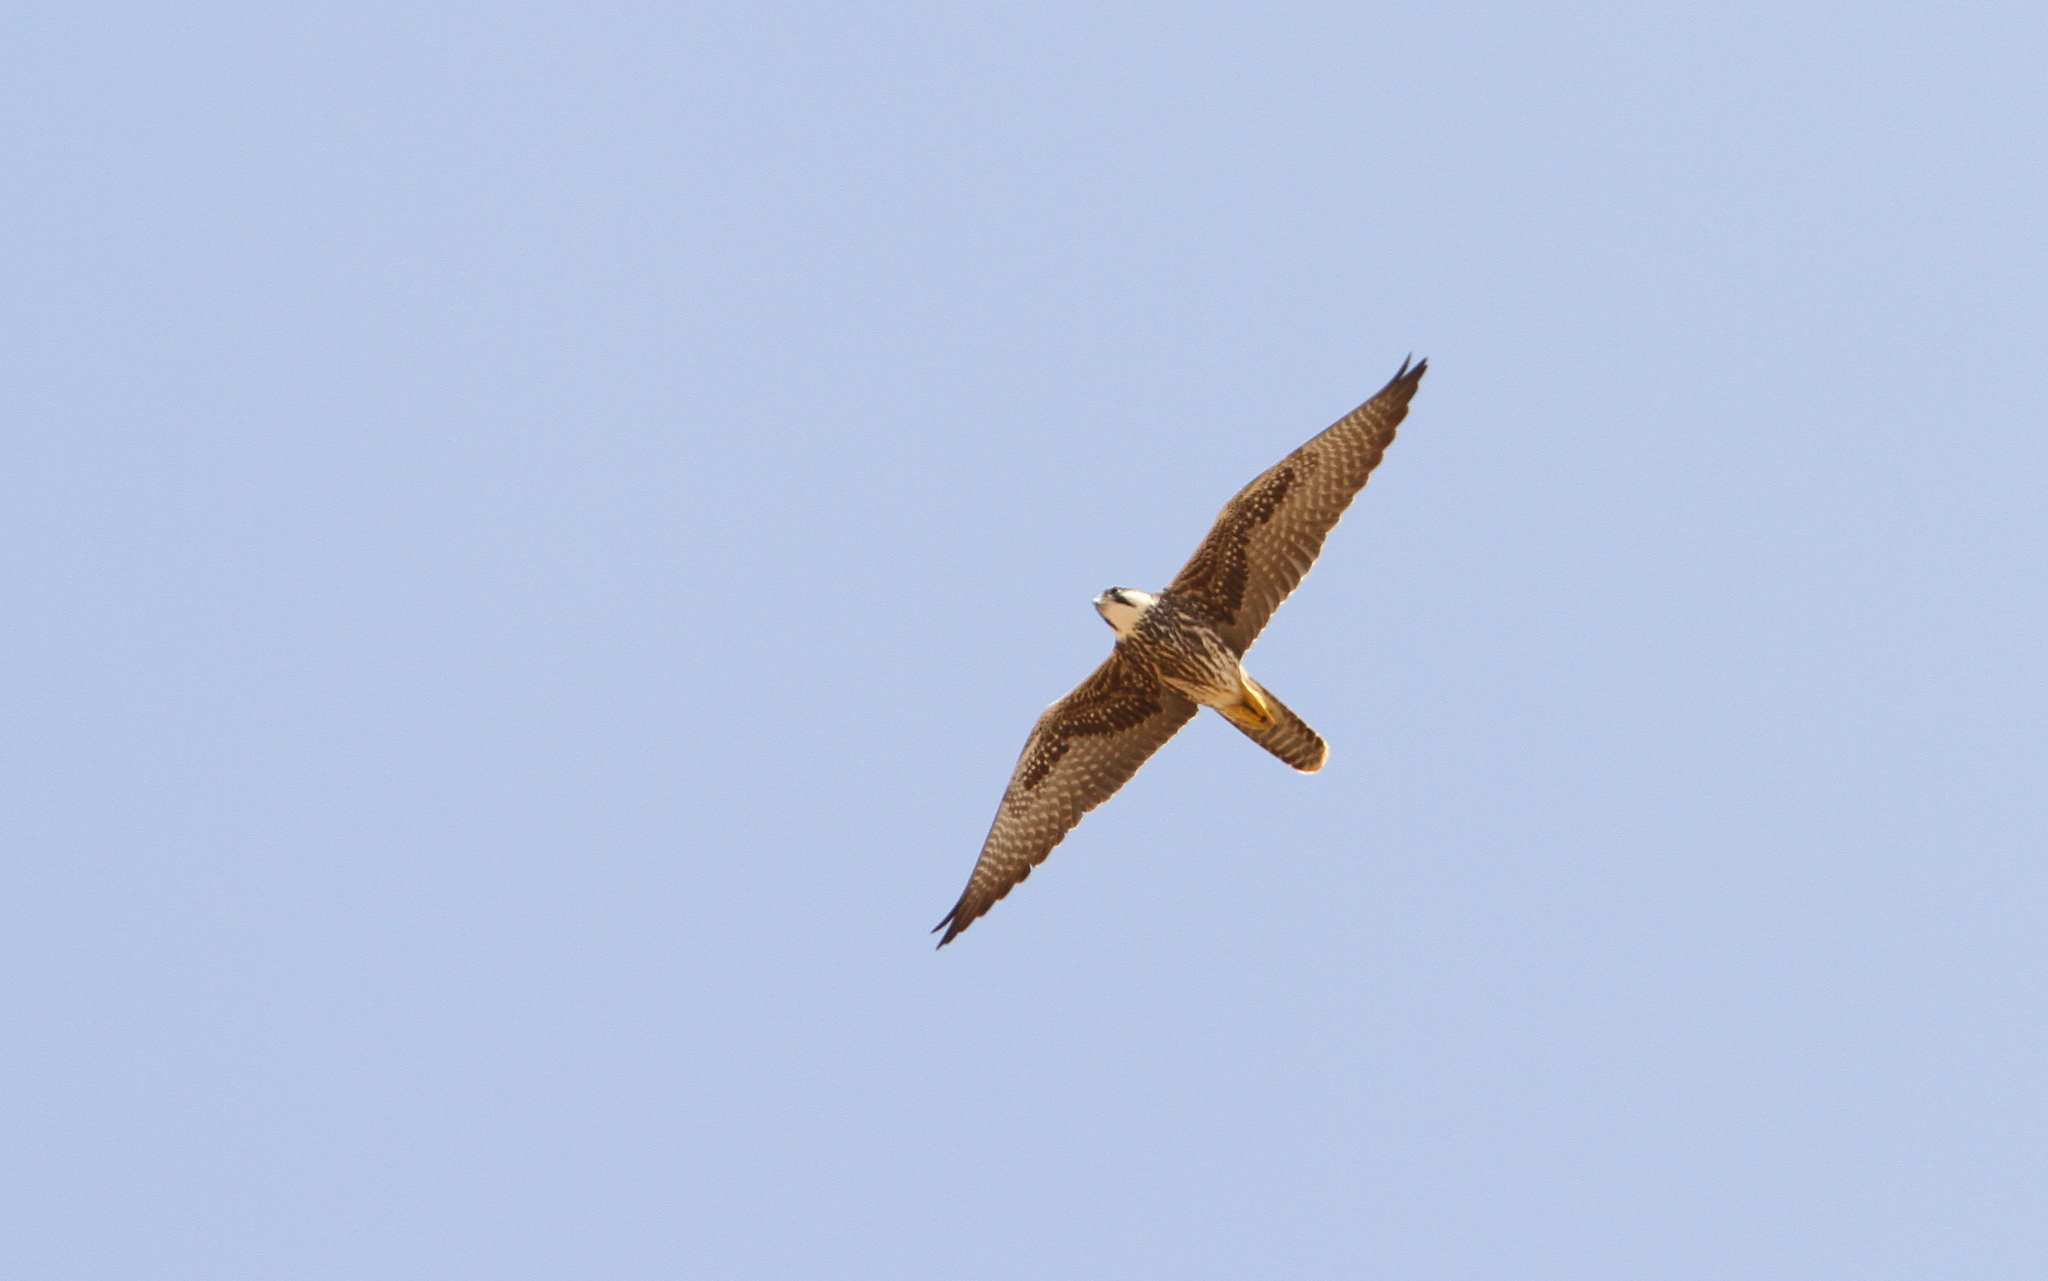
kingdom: Animalia
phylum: Chordata
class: Aves
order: Falconiformes
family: Falconidae
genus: Falco
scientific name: Falco biarmicus
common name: Lanner falcon
